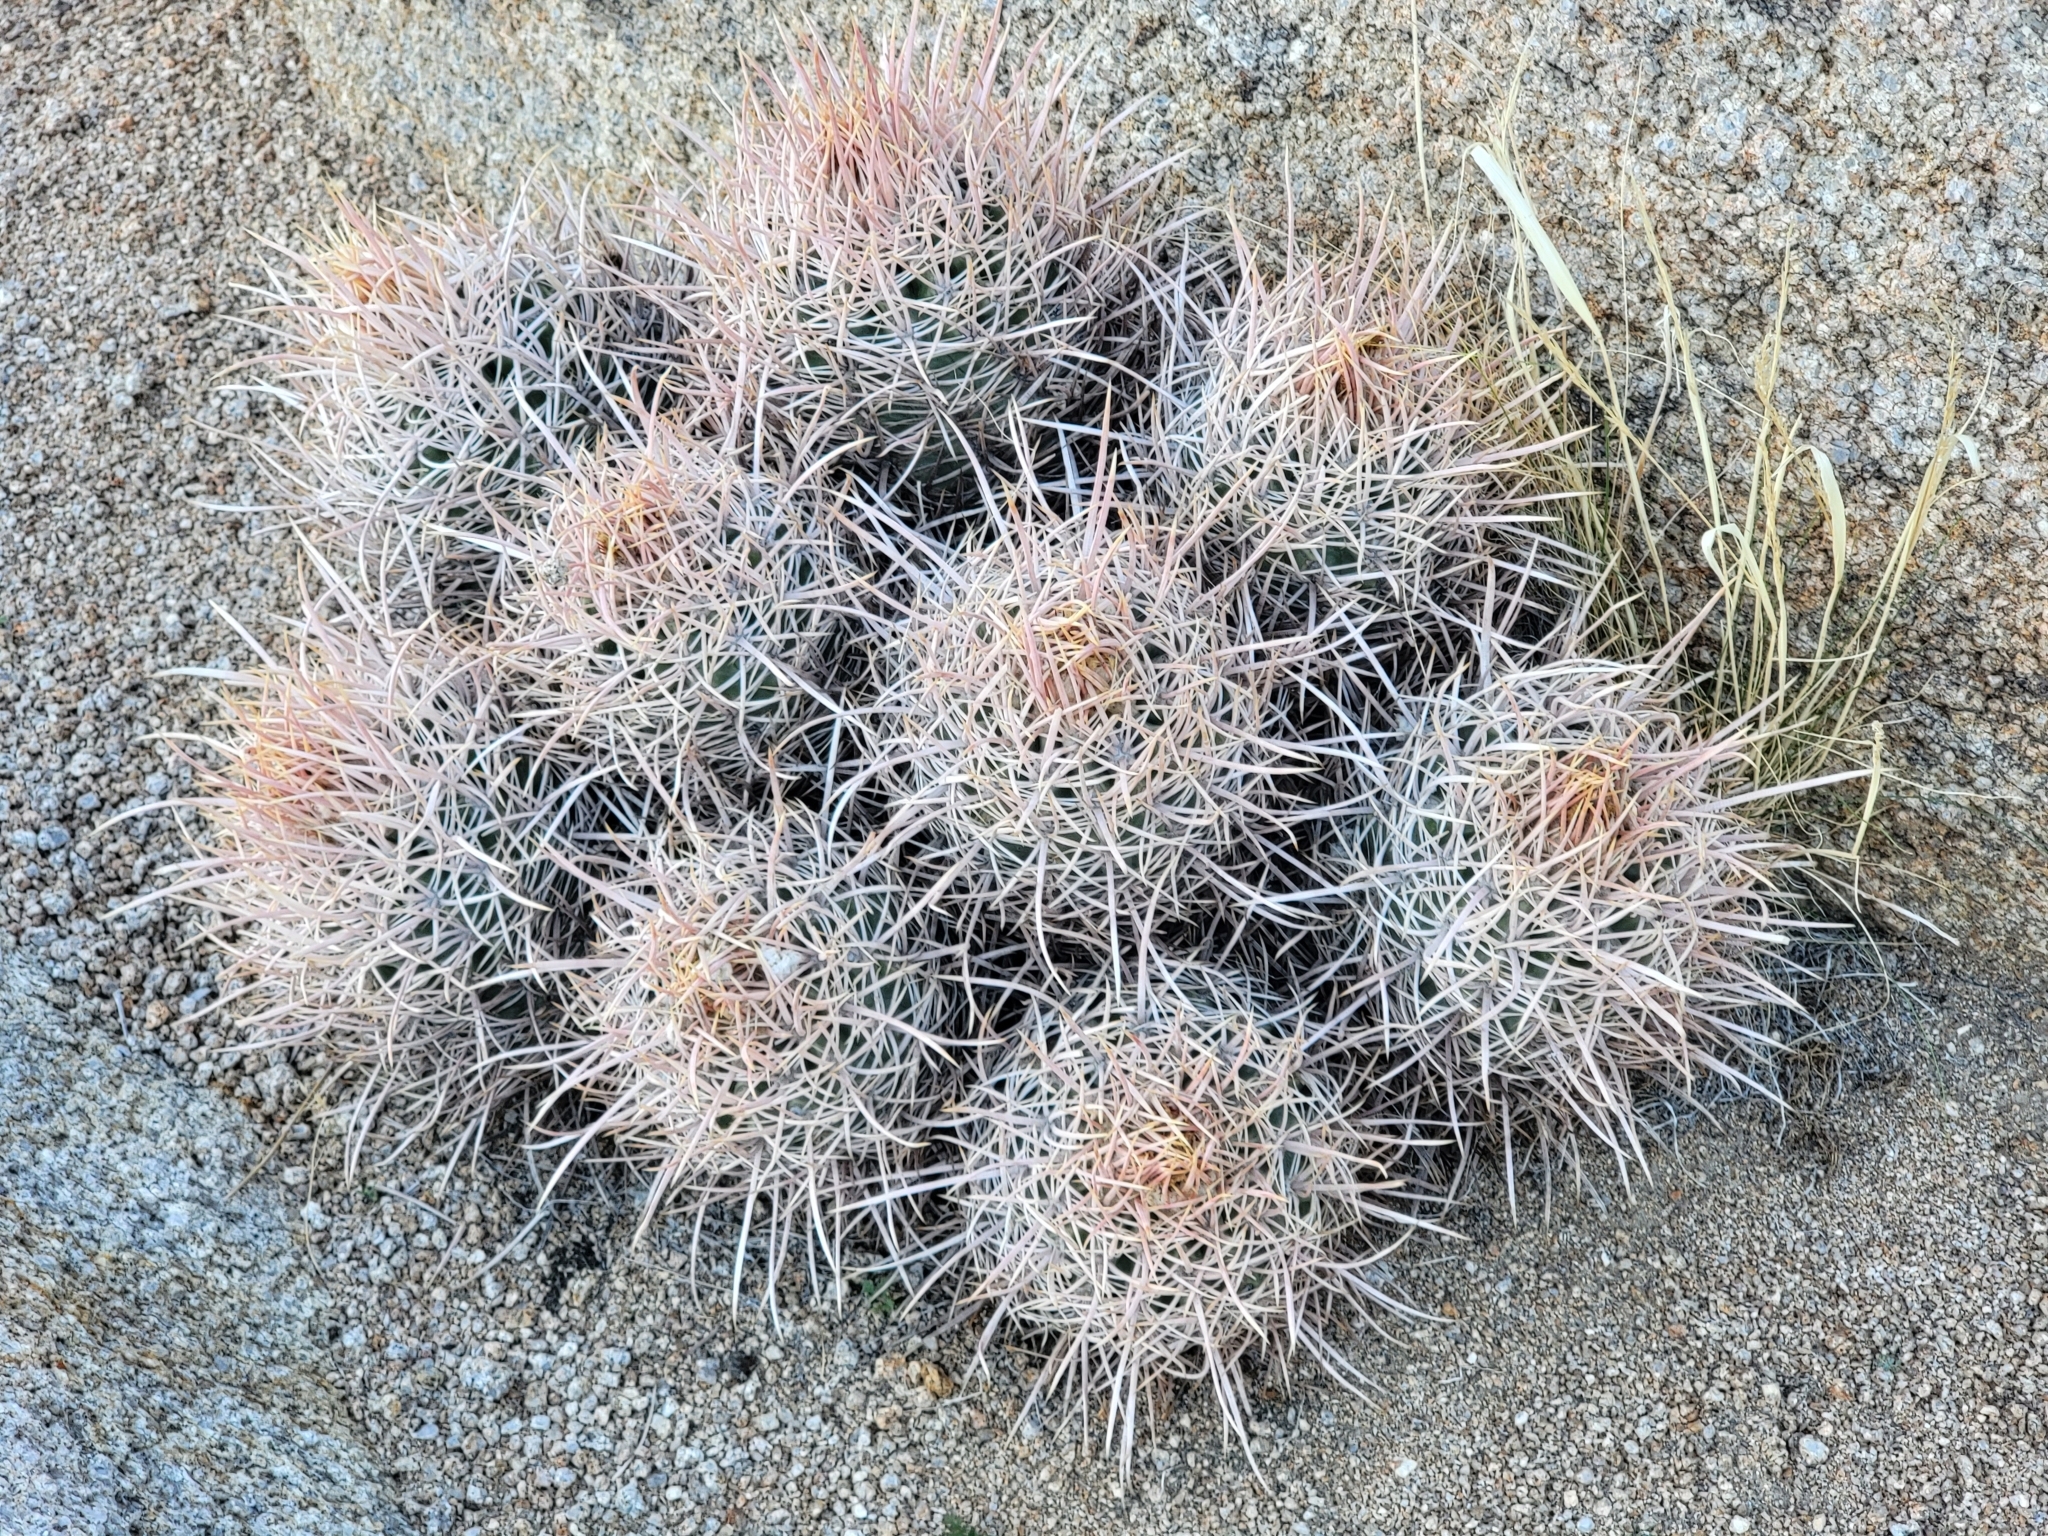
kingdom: Plantae
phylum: Tracheophyta
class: Magnoliopsida
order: Caryophyllales
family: Cactaceae
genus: Echinocactus
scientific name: Echinocactus polycephalus
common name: Cottontop cactus
